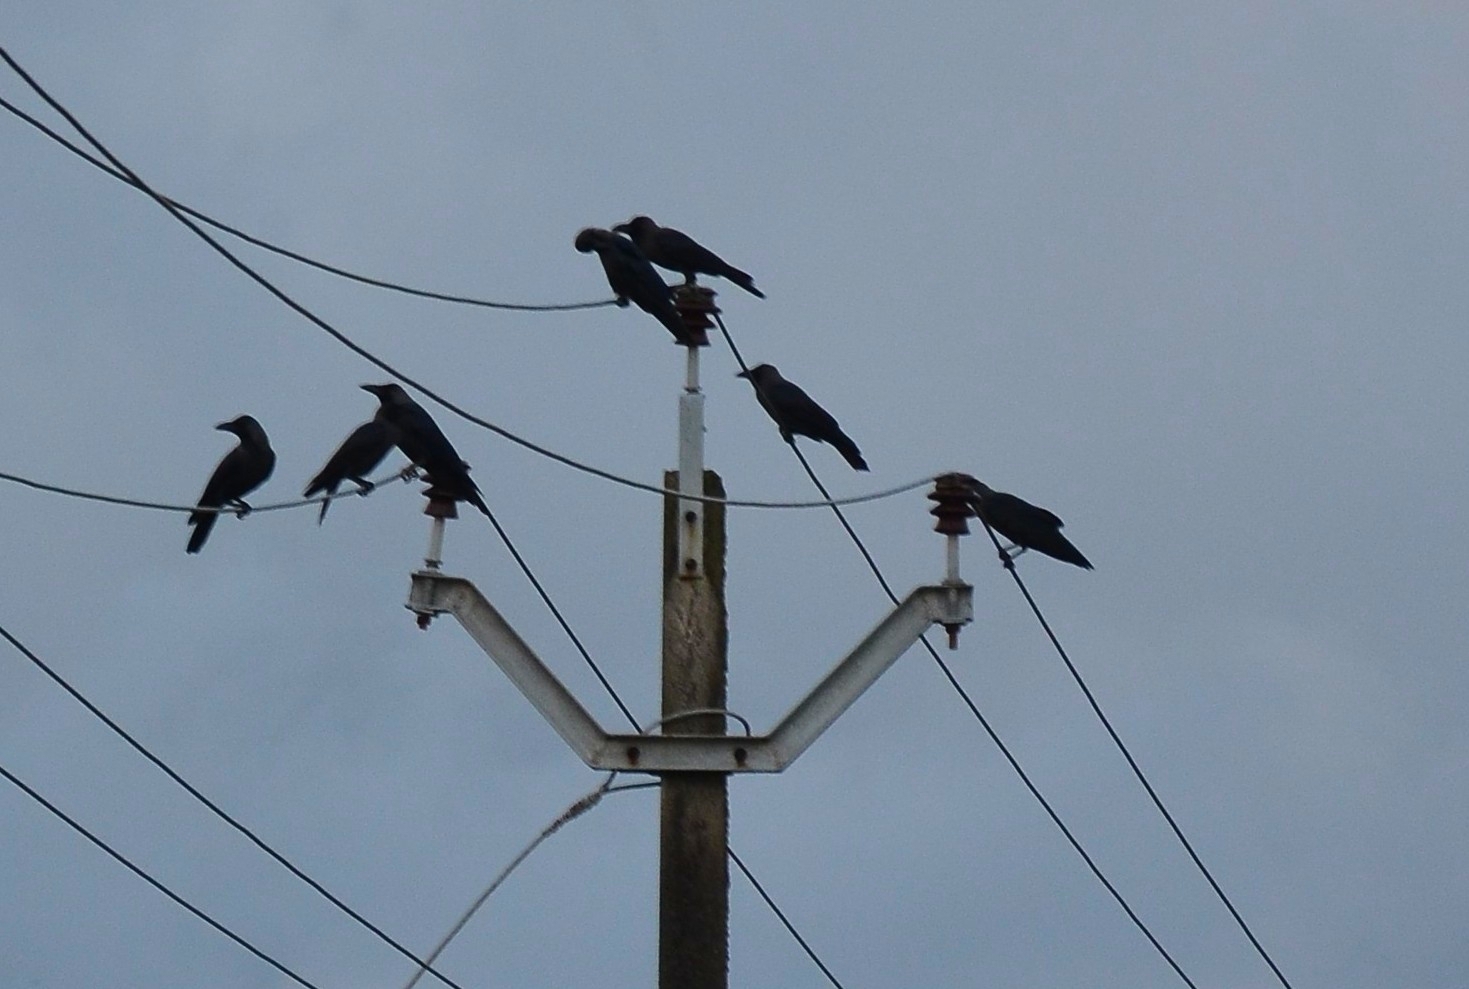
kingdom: Animalia
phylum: Chordata
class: Aves
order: Passeriformes
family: Corvidae
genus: Corvus
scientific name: Corvus splendens
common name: House crow
